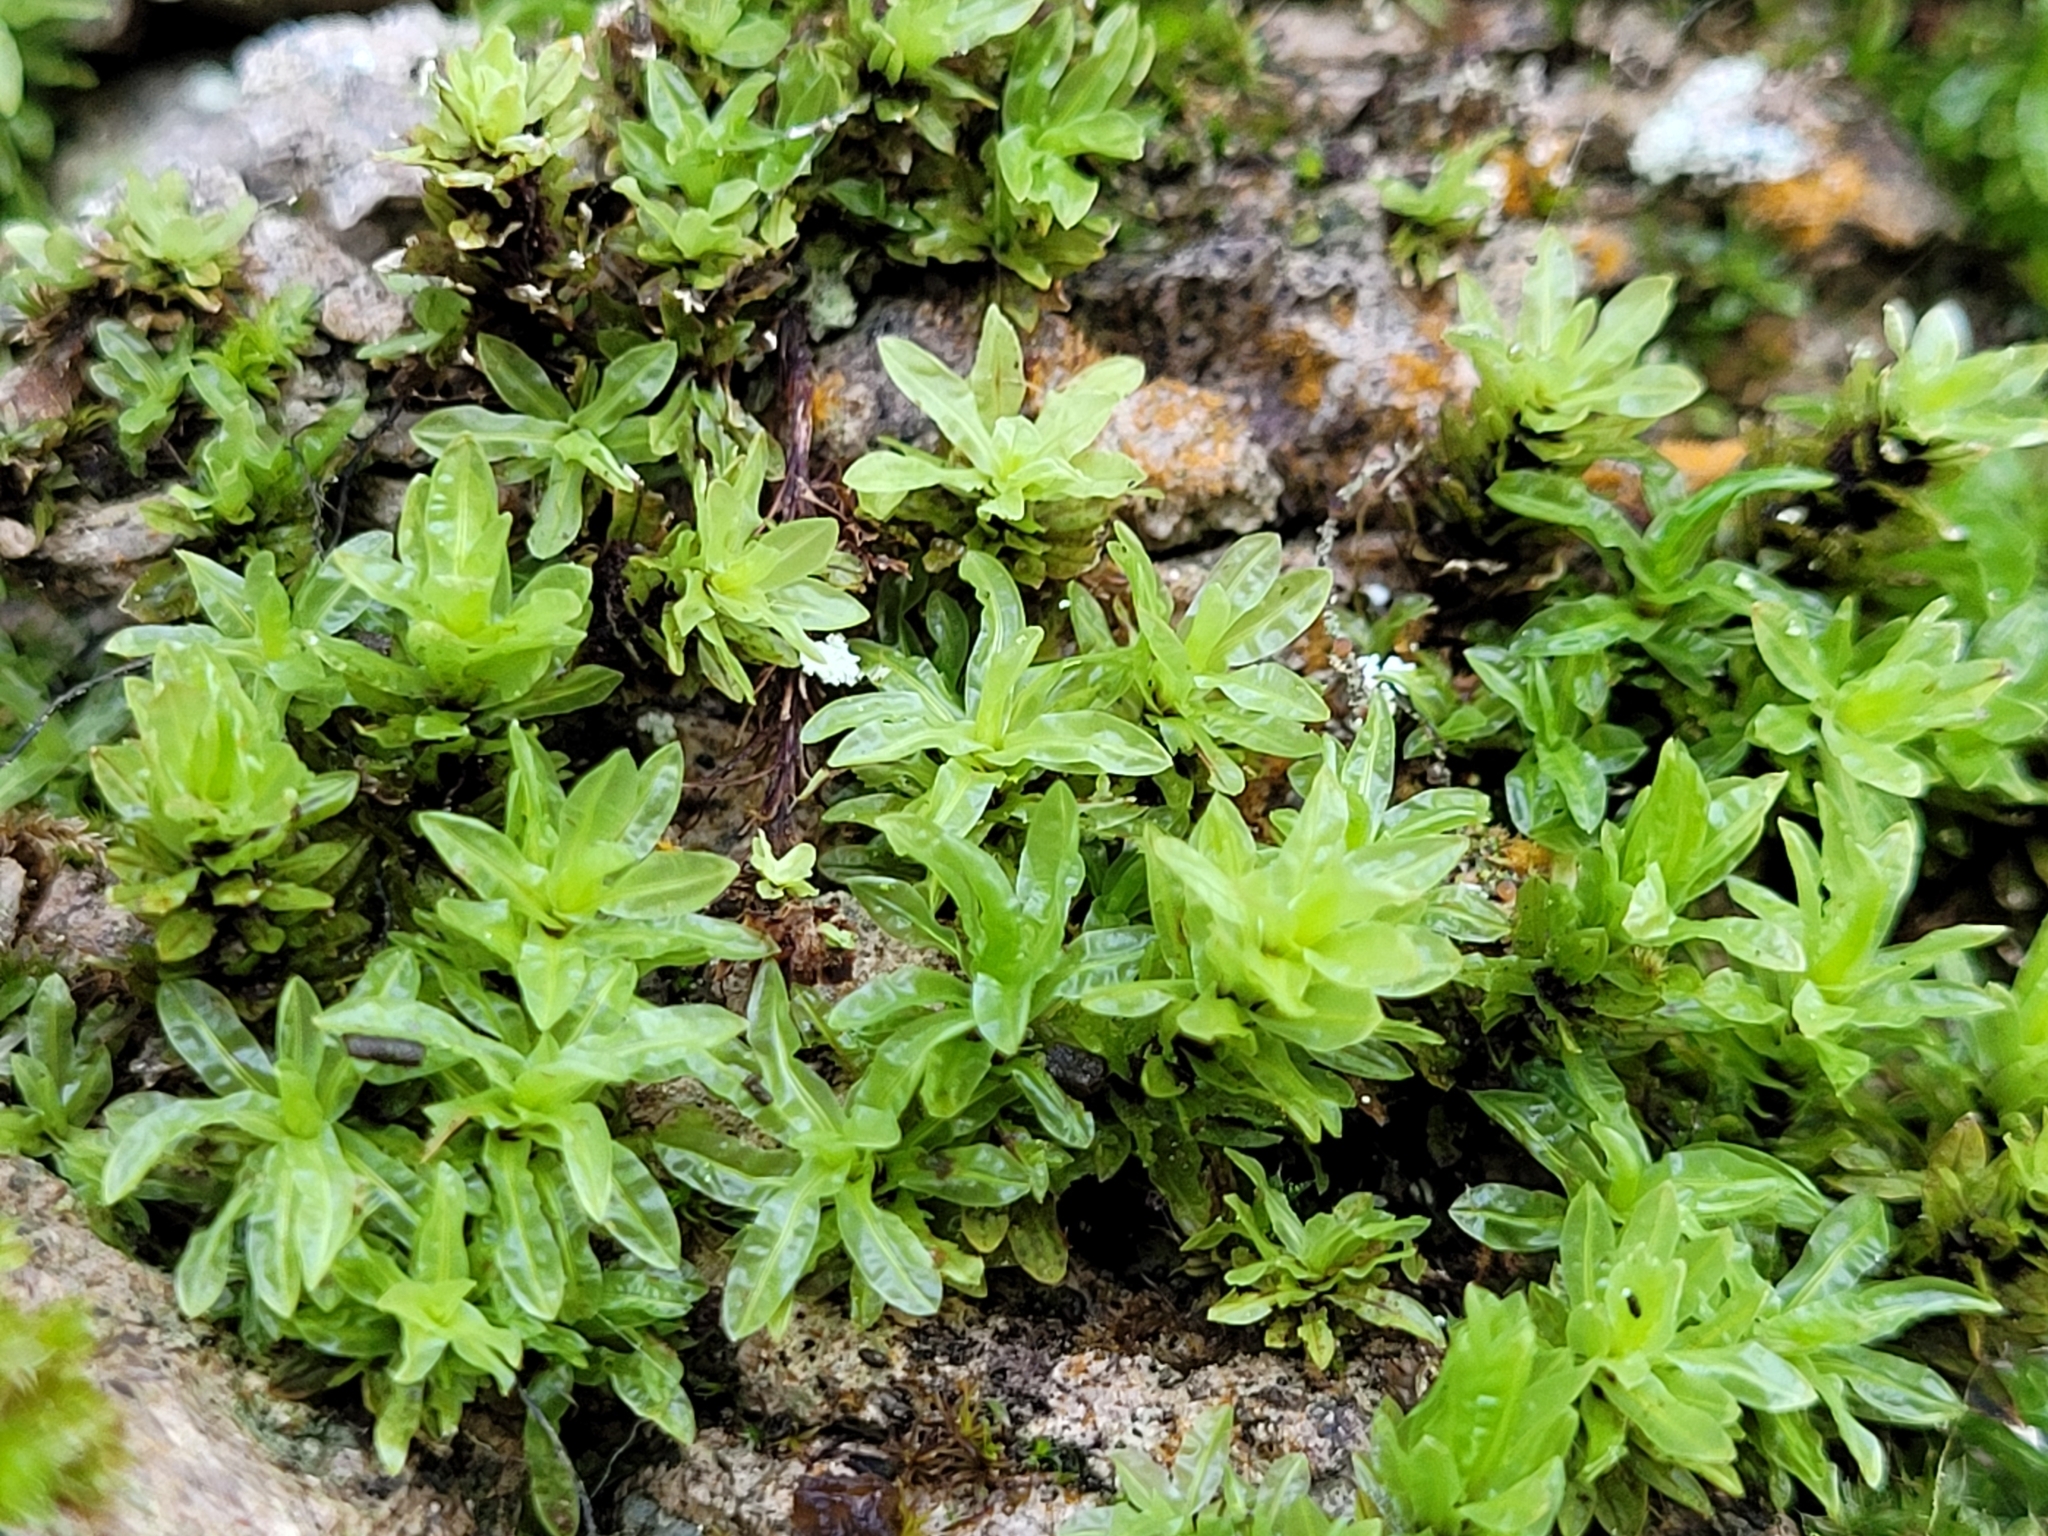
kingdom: Plantae
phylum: Bryophyta
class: Bryopsida
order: Encalyptales
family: Encalyptaceae
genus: Encalypta
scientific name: Encalypta streptocarpa
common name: Spiral extinguisher-moss
